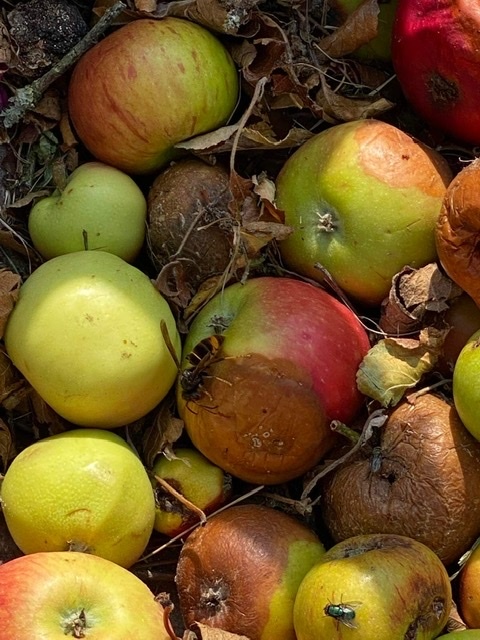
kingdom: Animalia
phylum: Arthropoda
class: Insecta
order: Hymenoptera
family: Vespidae
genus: Vespa
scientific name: Vespa velutina
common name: Asian hornet
